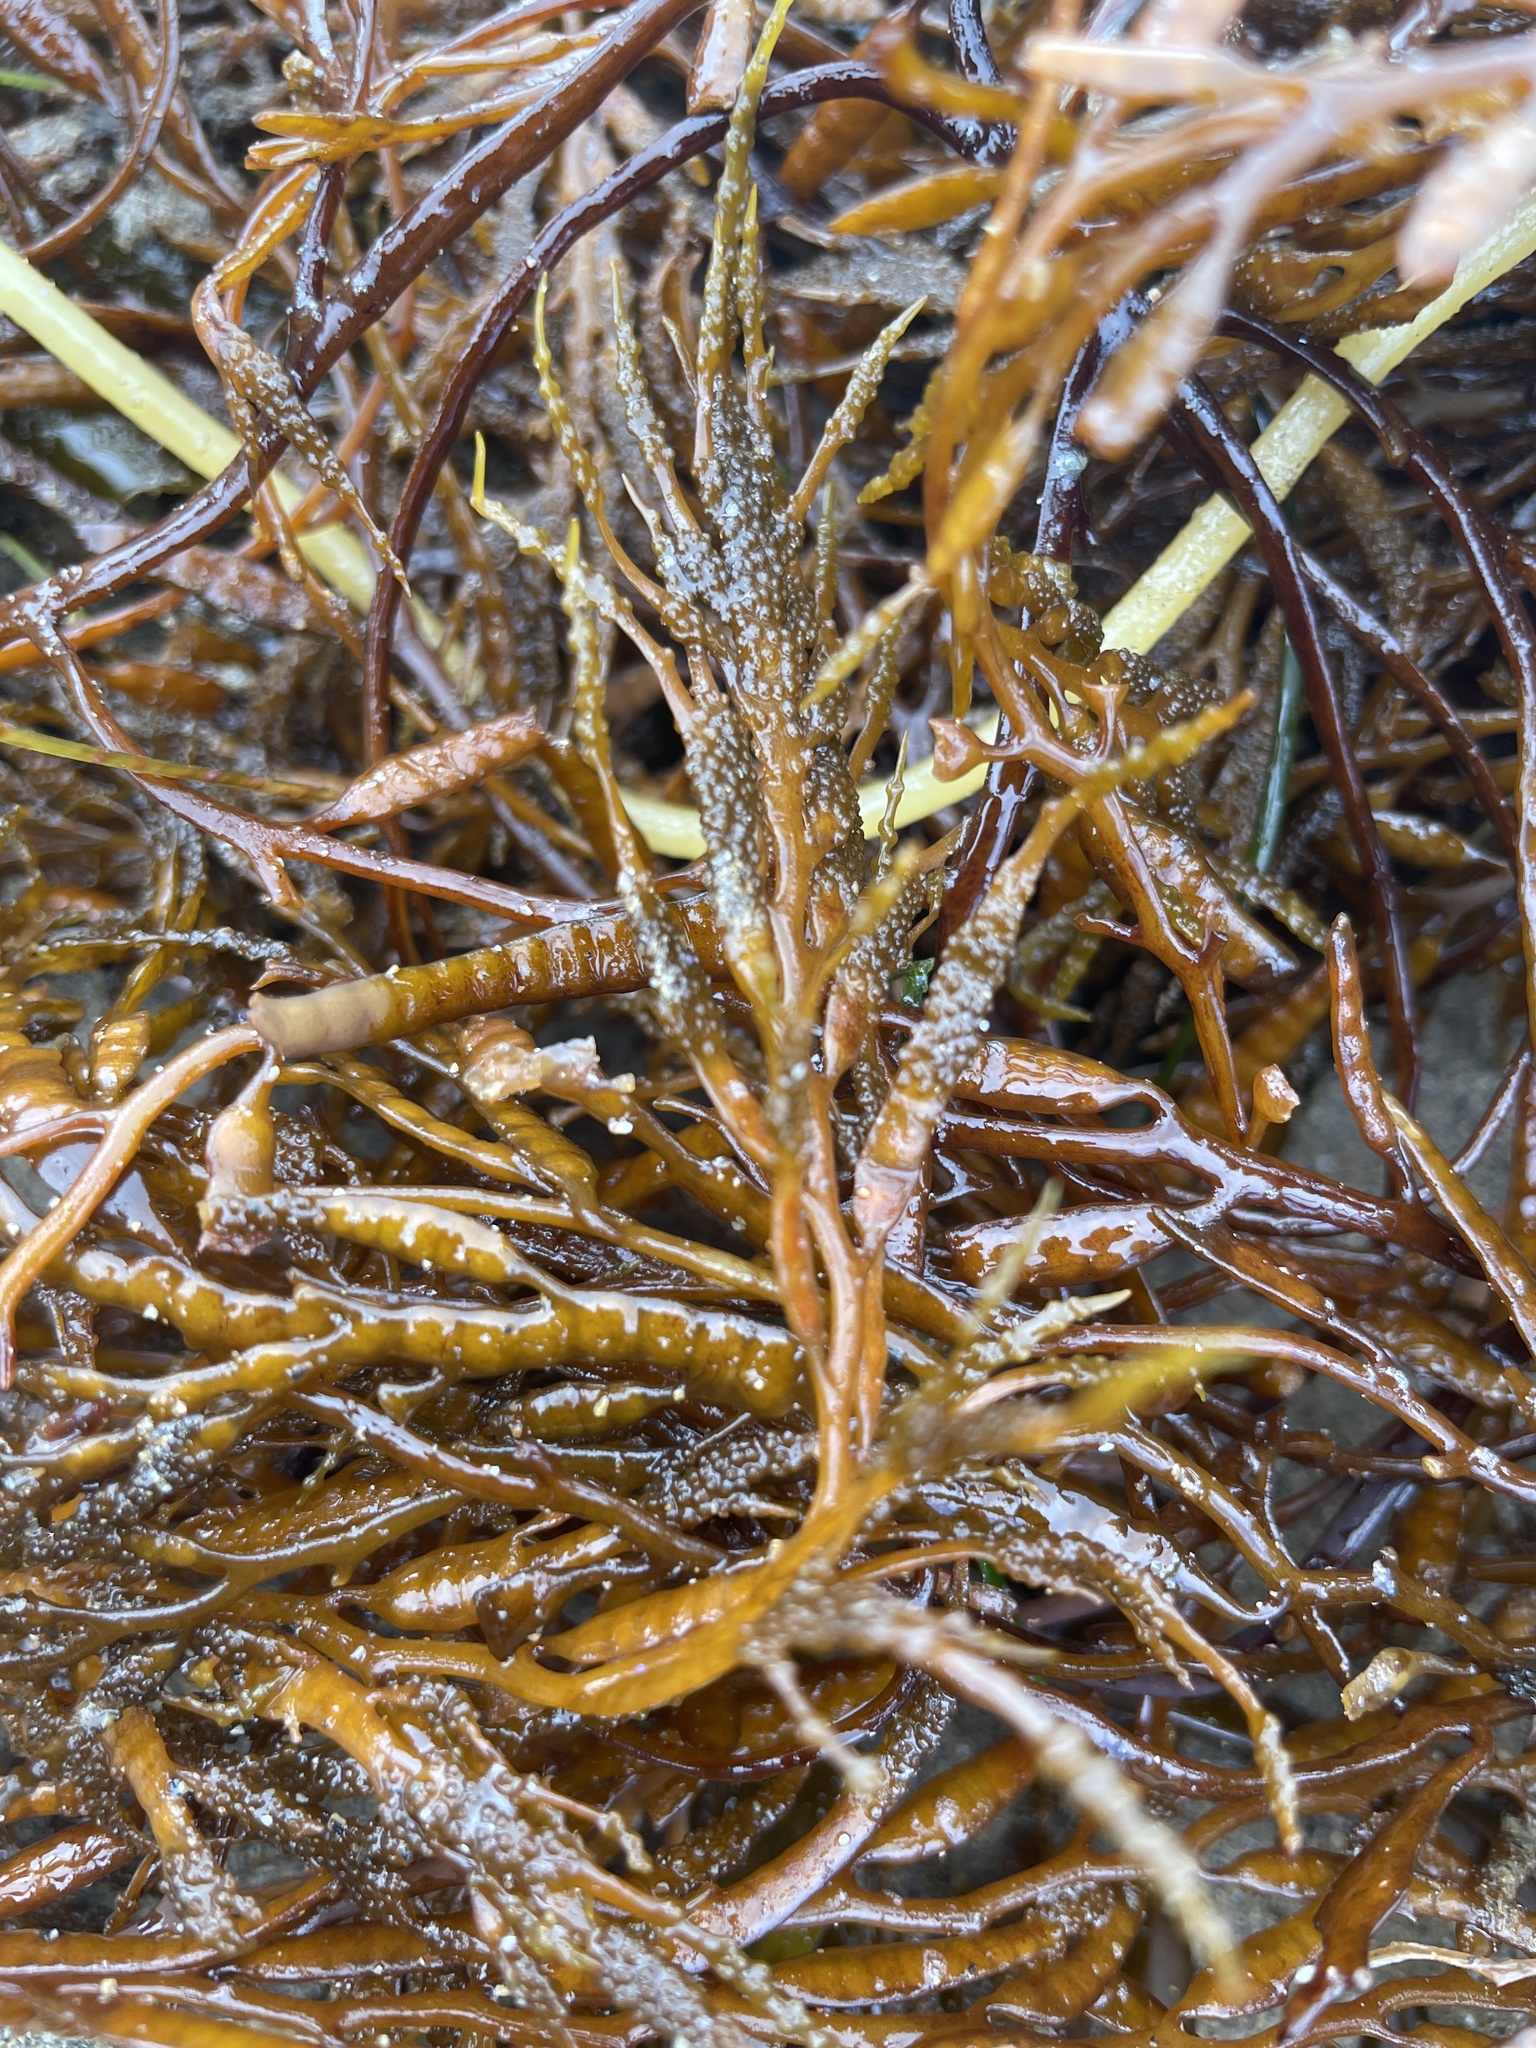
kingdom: Chromista
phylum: Ochrophyta
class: Phaeophyceae
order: Fucales
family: Sargassaceae
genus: Stephanocystis
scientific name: Stephanocystis
